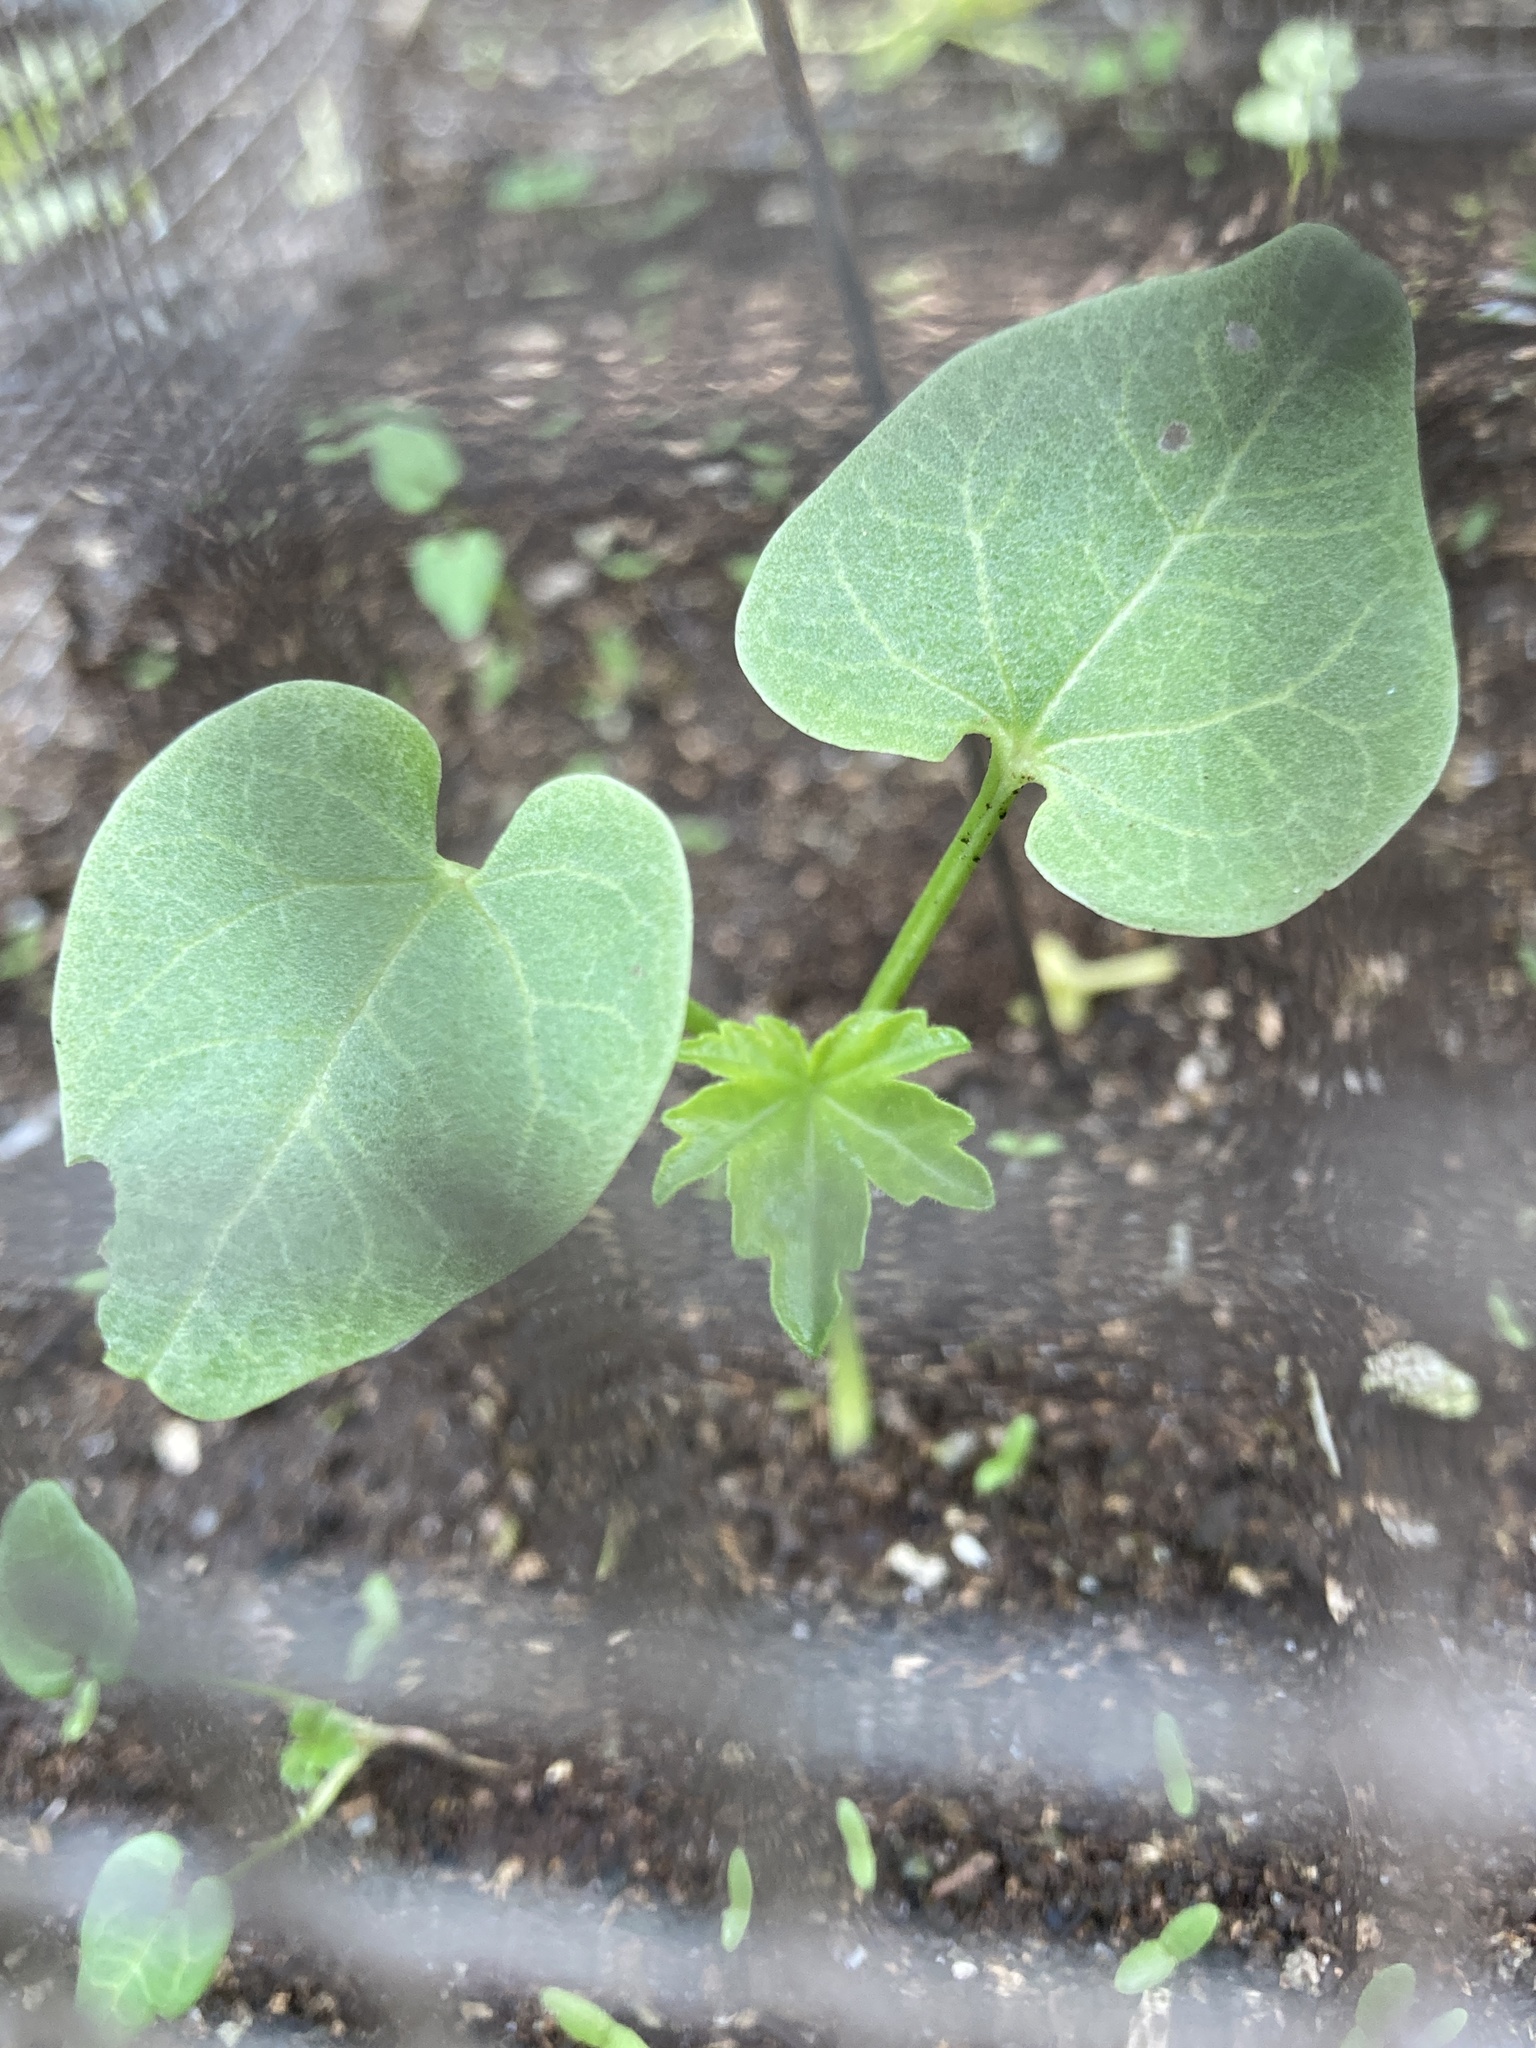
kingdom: Plantae
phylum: Tracheophyta
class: Magnoliopsida
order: Malvales
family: Malvaceae
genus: Malva
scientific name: Malva assurgentiflora
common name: Island mallow
